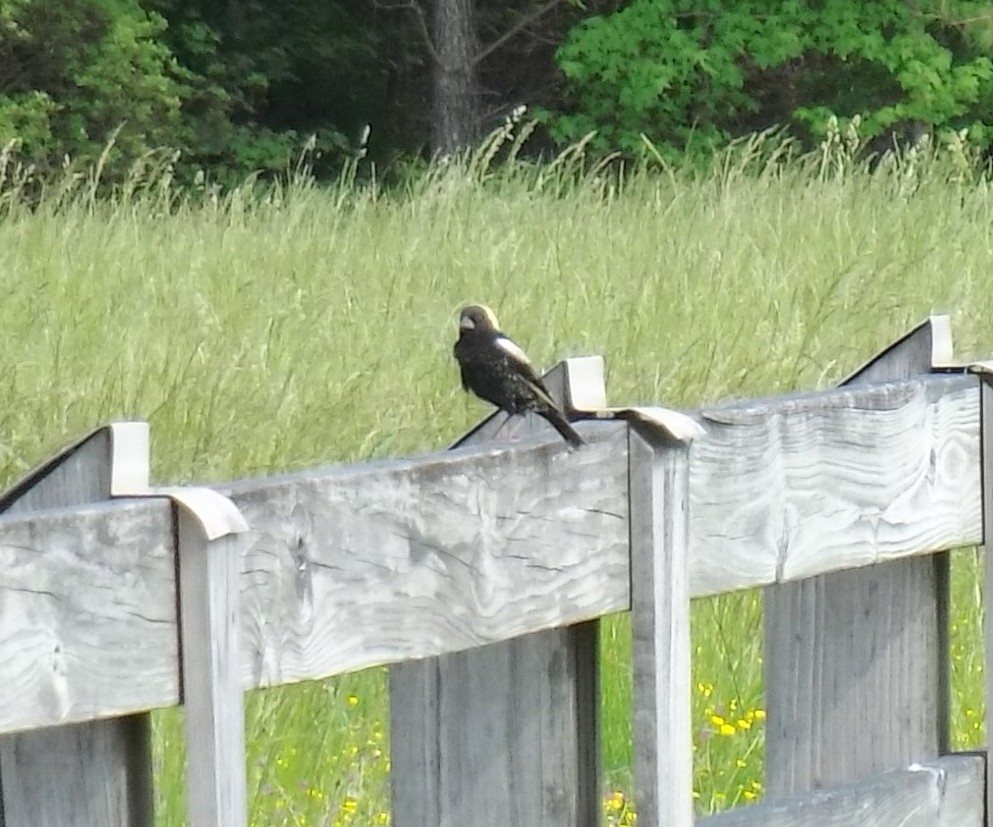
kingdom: Animalia
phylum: Chordata
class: Aves
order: Passeriformes
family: Icteridae
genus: Dolichonyx
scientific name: Dolichonyx oryzivorus
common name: Bobolink
